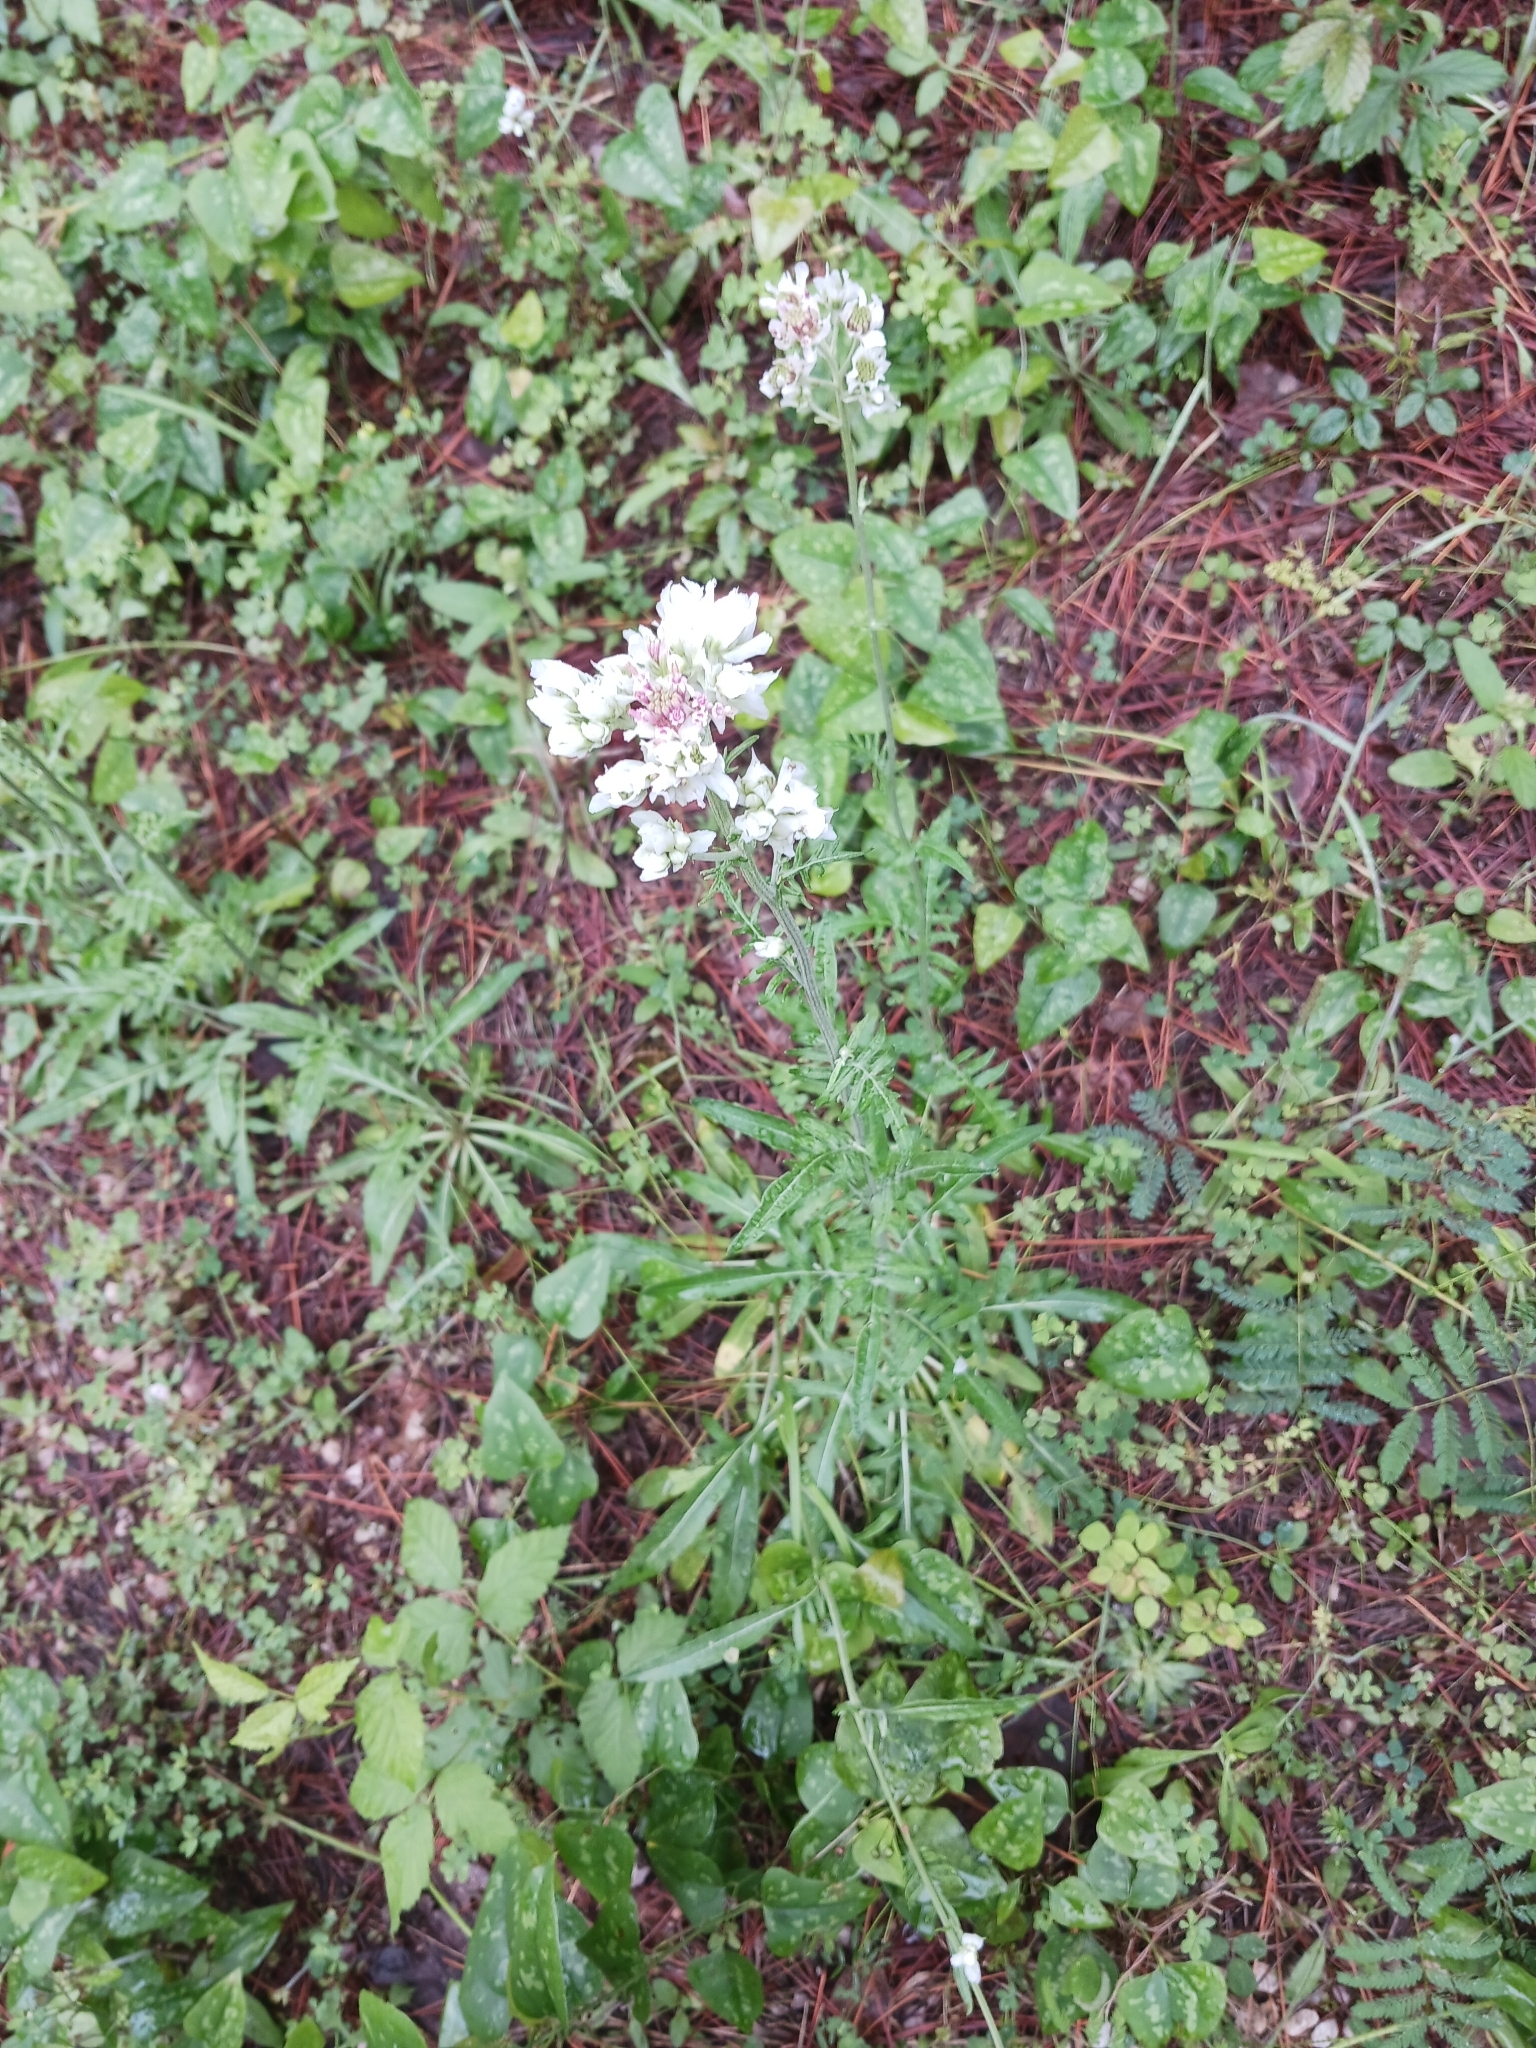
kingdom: Plantae
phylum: Tracheophyta
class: Magnoliopsida
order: Asterales
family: Asteraceae
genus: Hymenopappus
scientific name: Hymenopappus artemisiifolius
